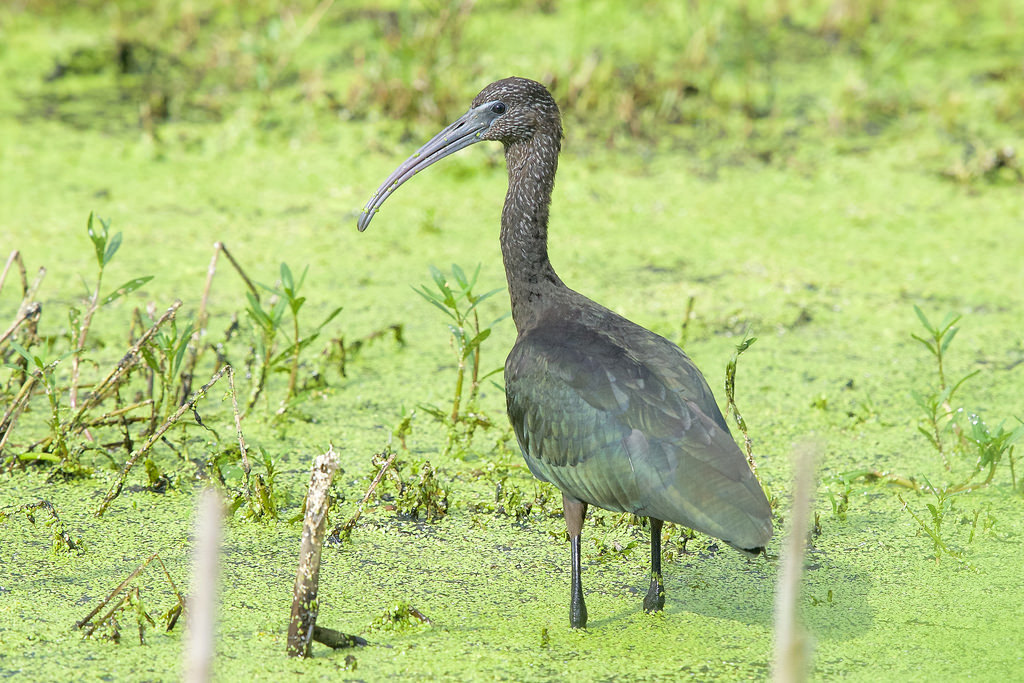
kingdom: Animalia
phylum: Chordata
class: Aves
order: Pelecaniformes
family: Threskiornithidae
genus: Plegadis
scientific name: Plegadis falcinellus
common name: Glossy ibis
